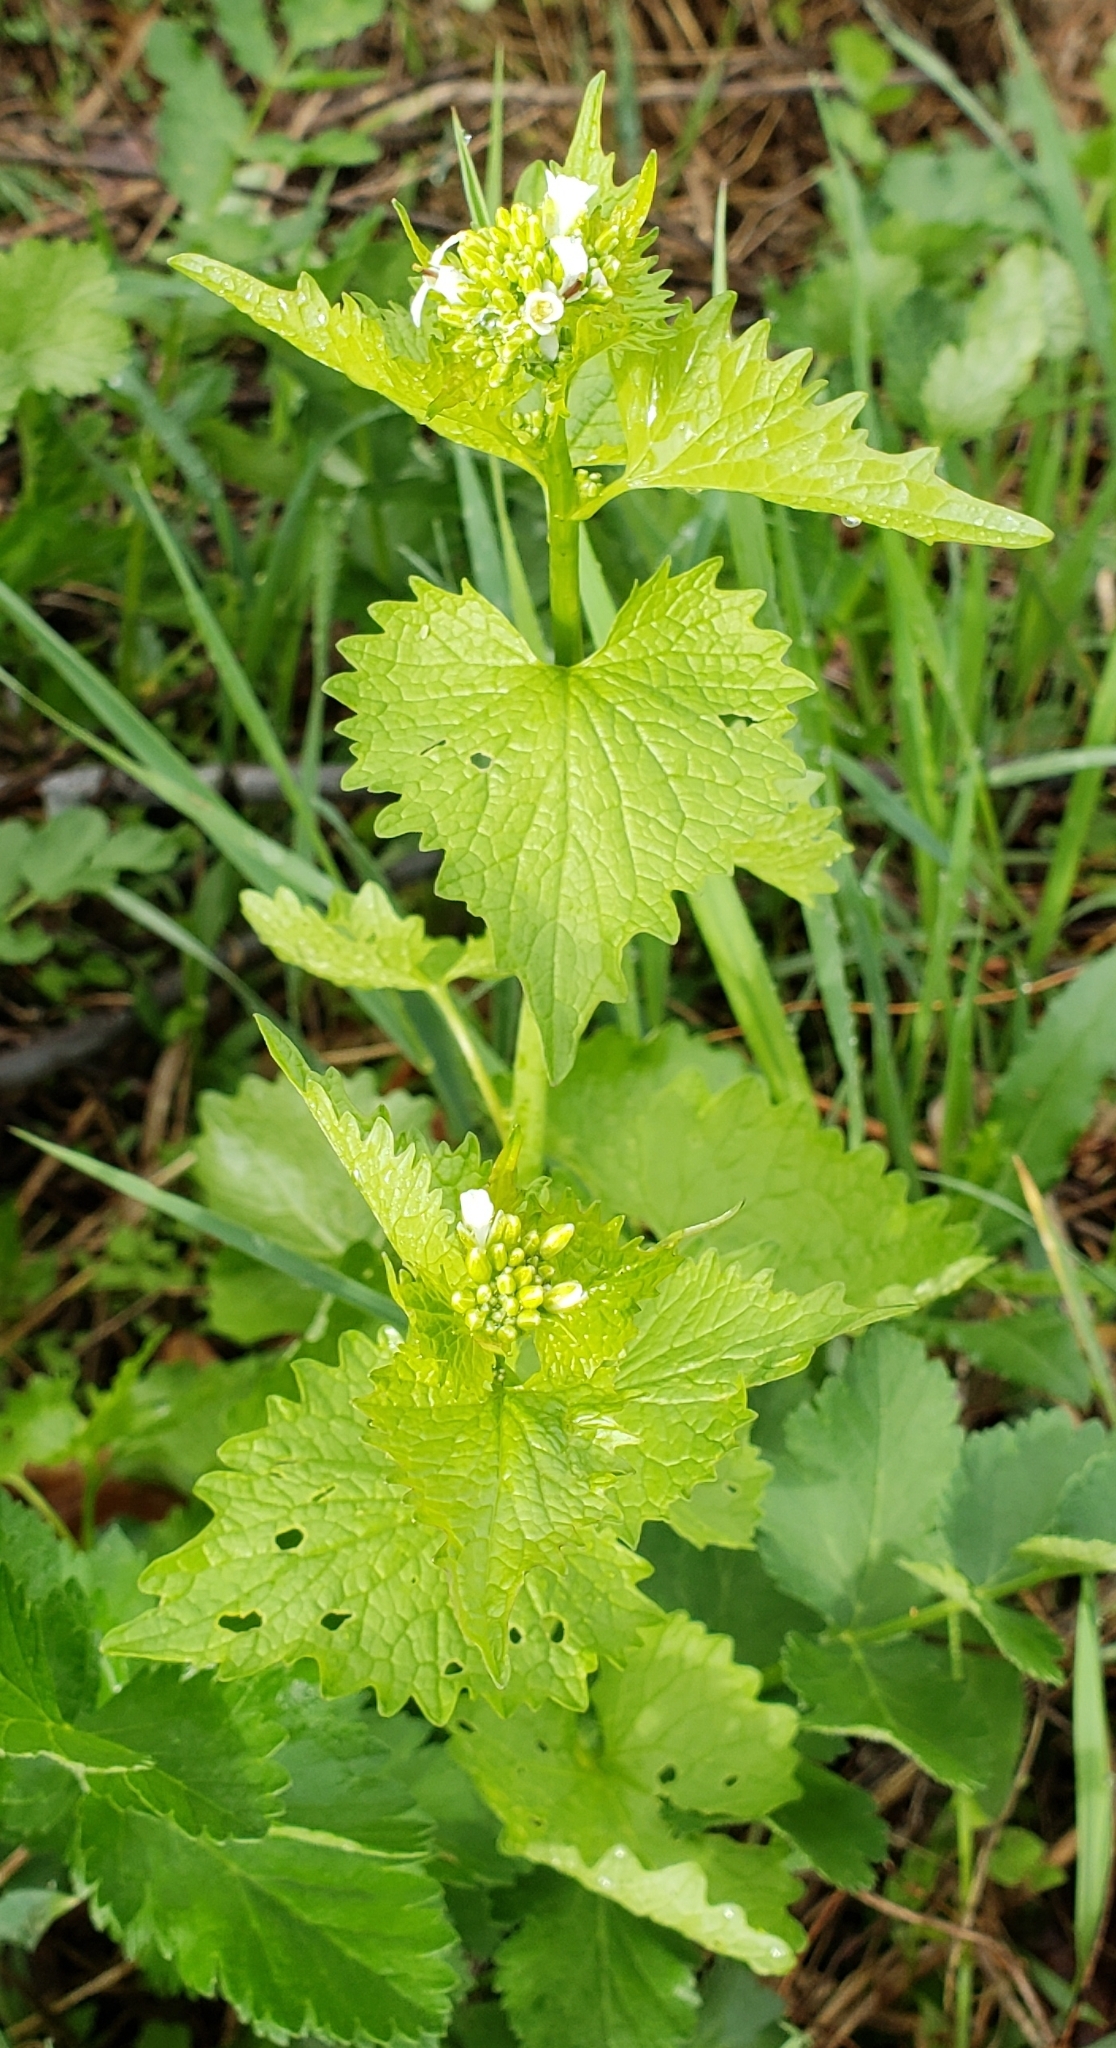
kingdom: Plantae
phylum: Tracheophyta
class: Magnoliopsida
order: Brassicales
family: Brassicaceae
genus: Alliaria
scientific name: Alliaria petiolata
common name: Garlic mustard
